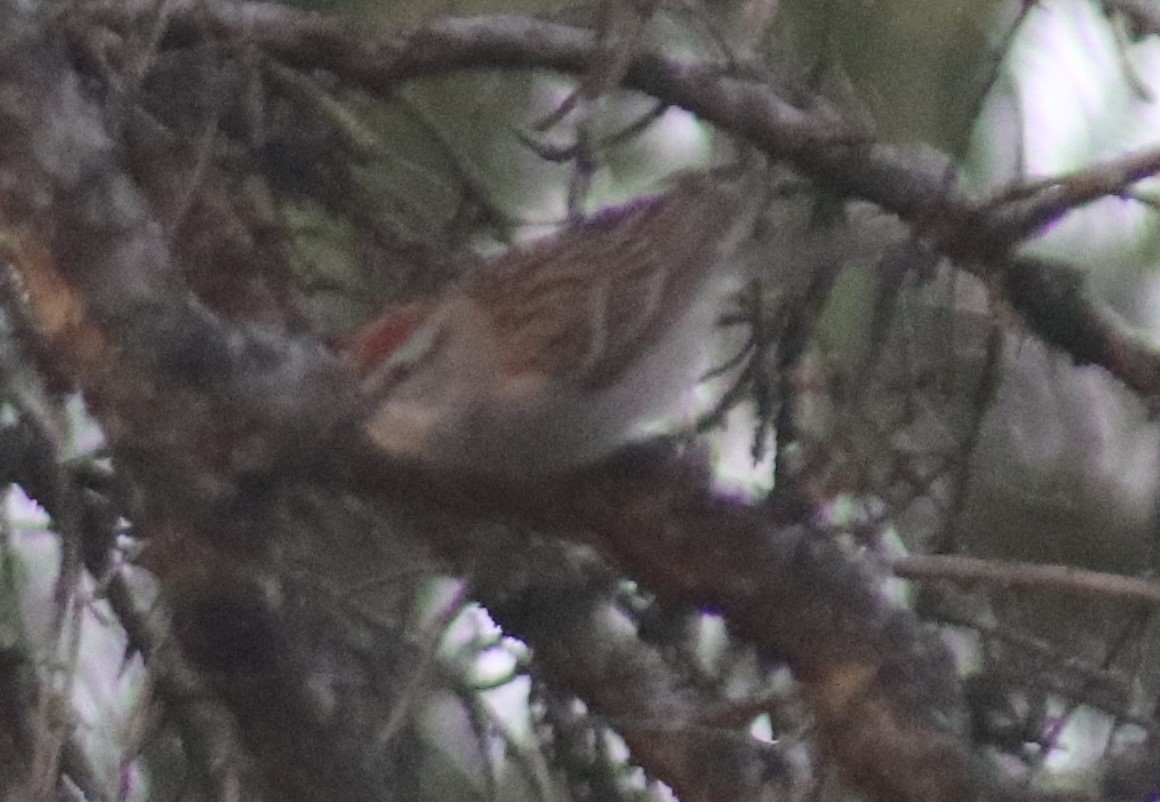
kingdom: Animalia
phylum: Chordata
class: Aves
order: Passeriformes
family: Passerellidae
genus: Spizella
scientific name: Spizella passerina
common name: Chipping sparrow
